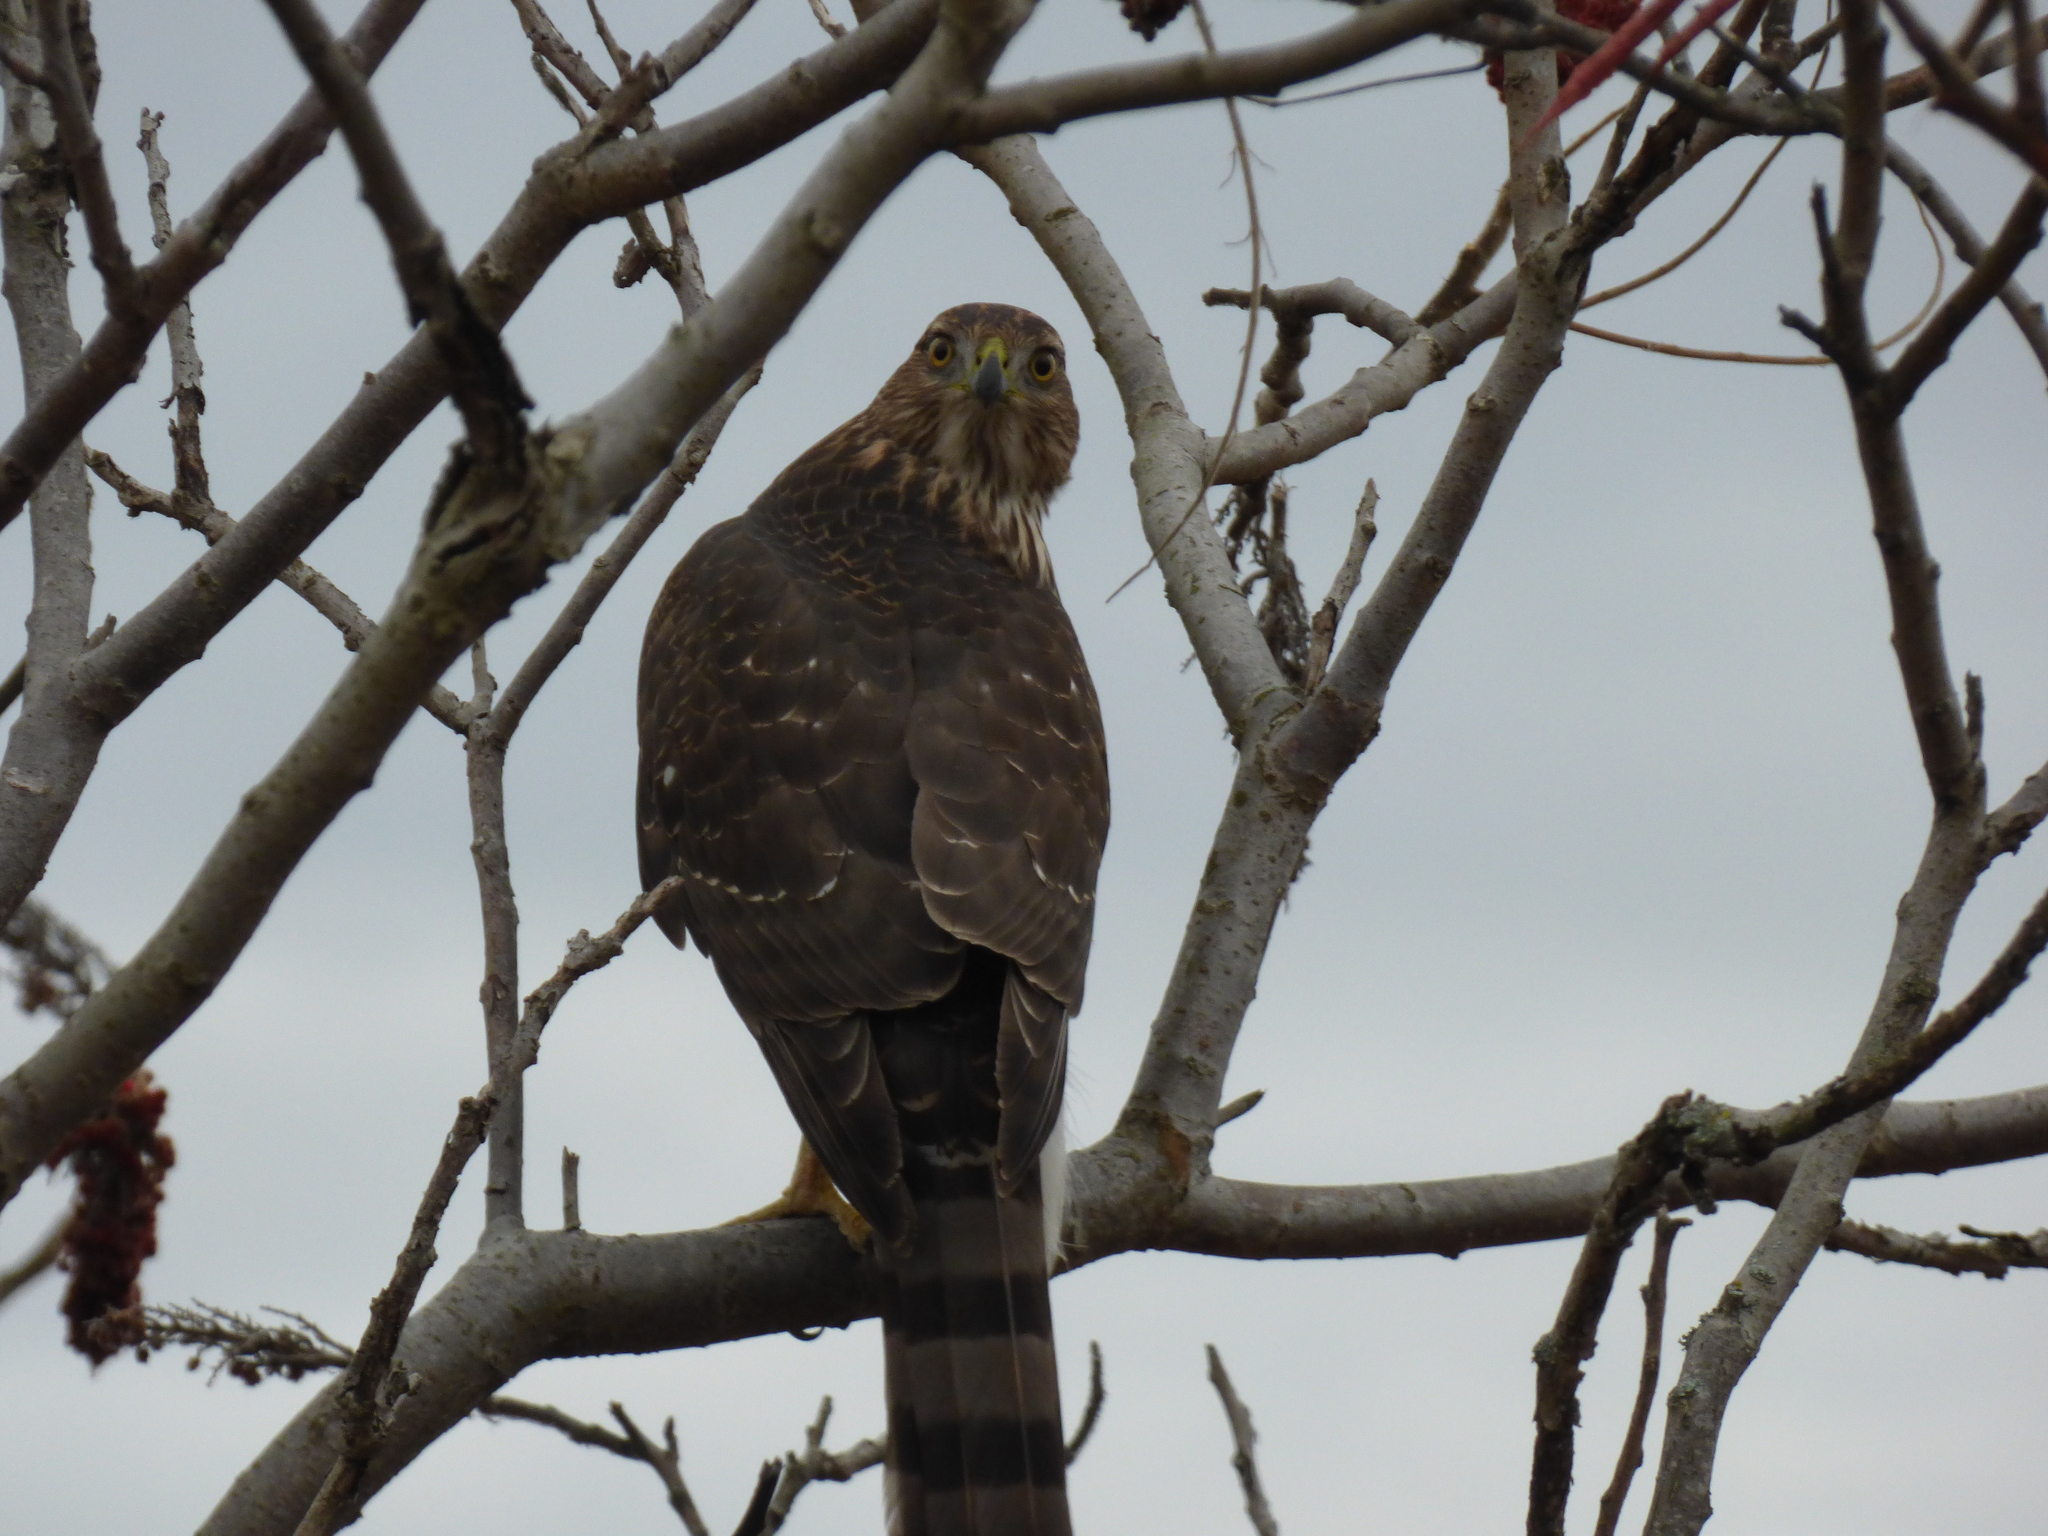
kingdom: Animalia
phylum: Chordata
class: Aves
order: Accipitriformes
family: Accipitridae
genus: Accipiter
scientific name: Accipiter cooperii
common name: Cooper's hawk
